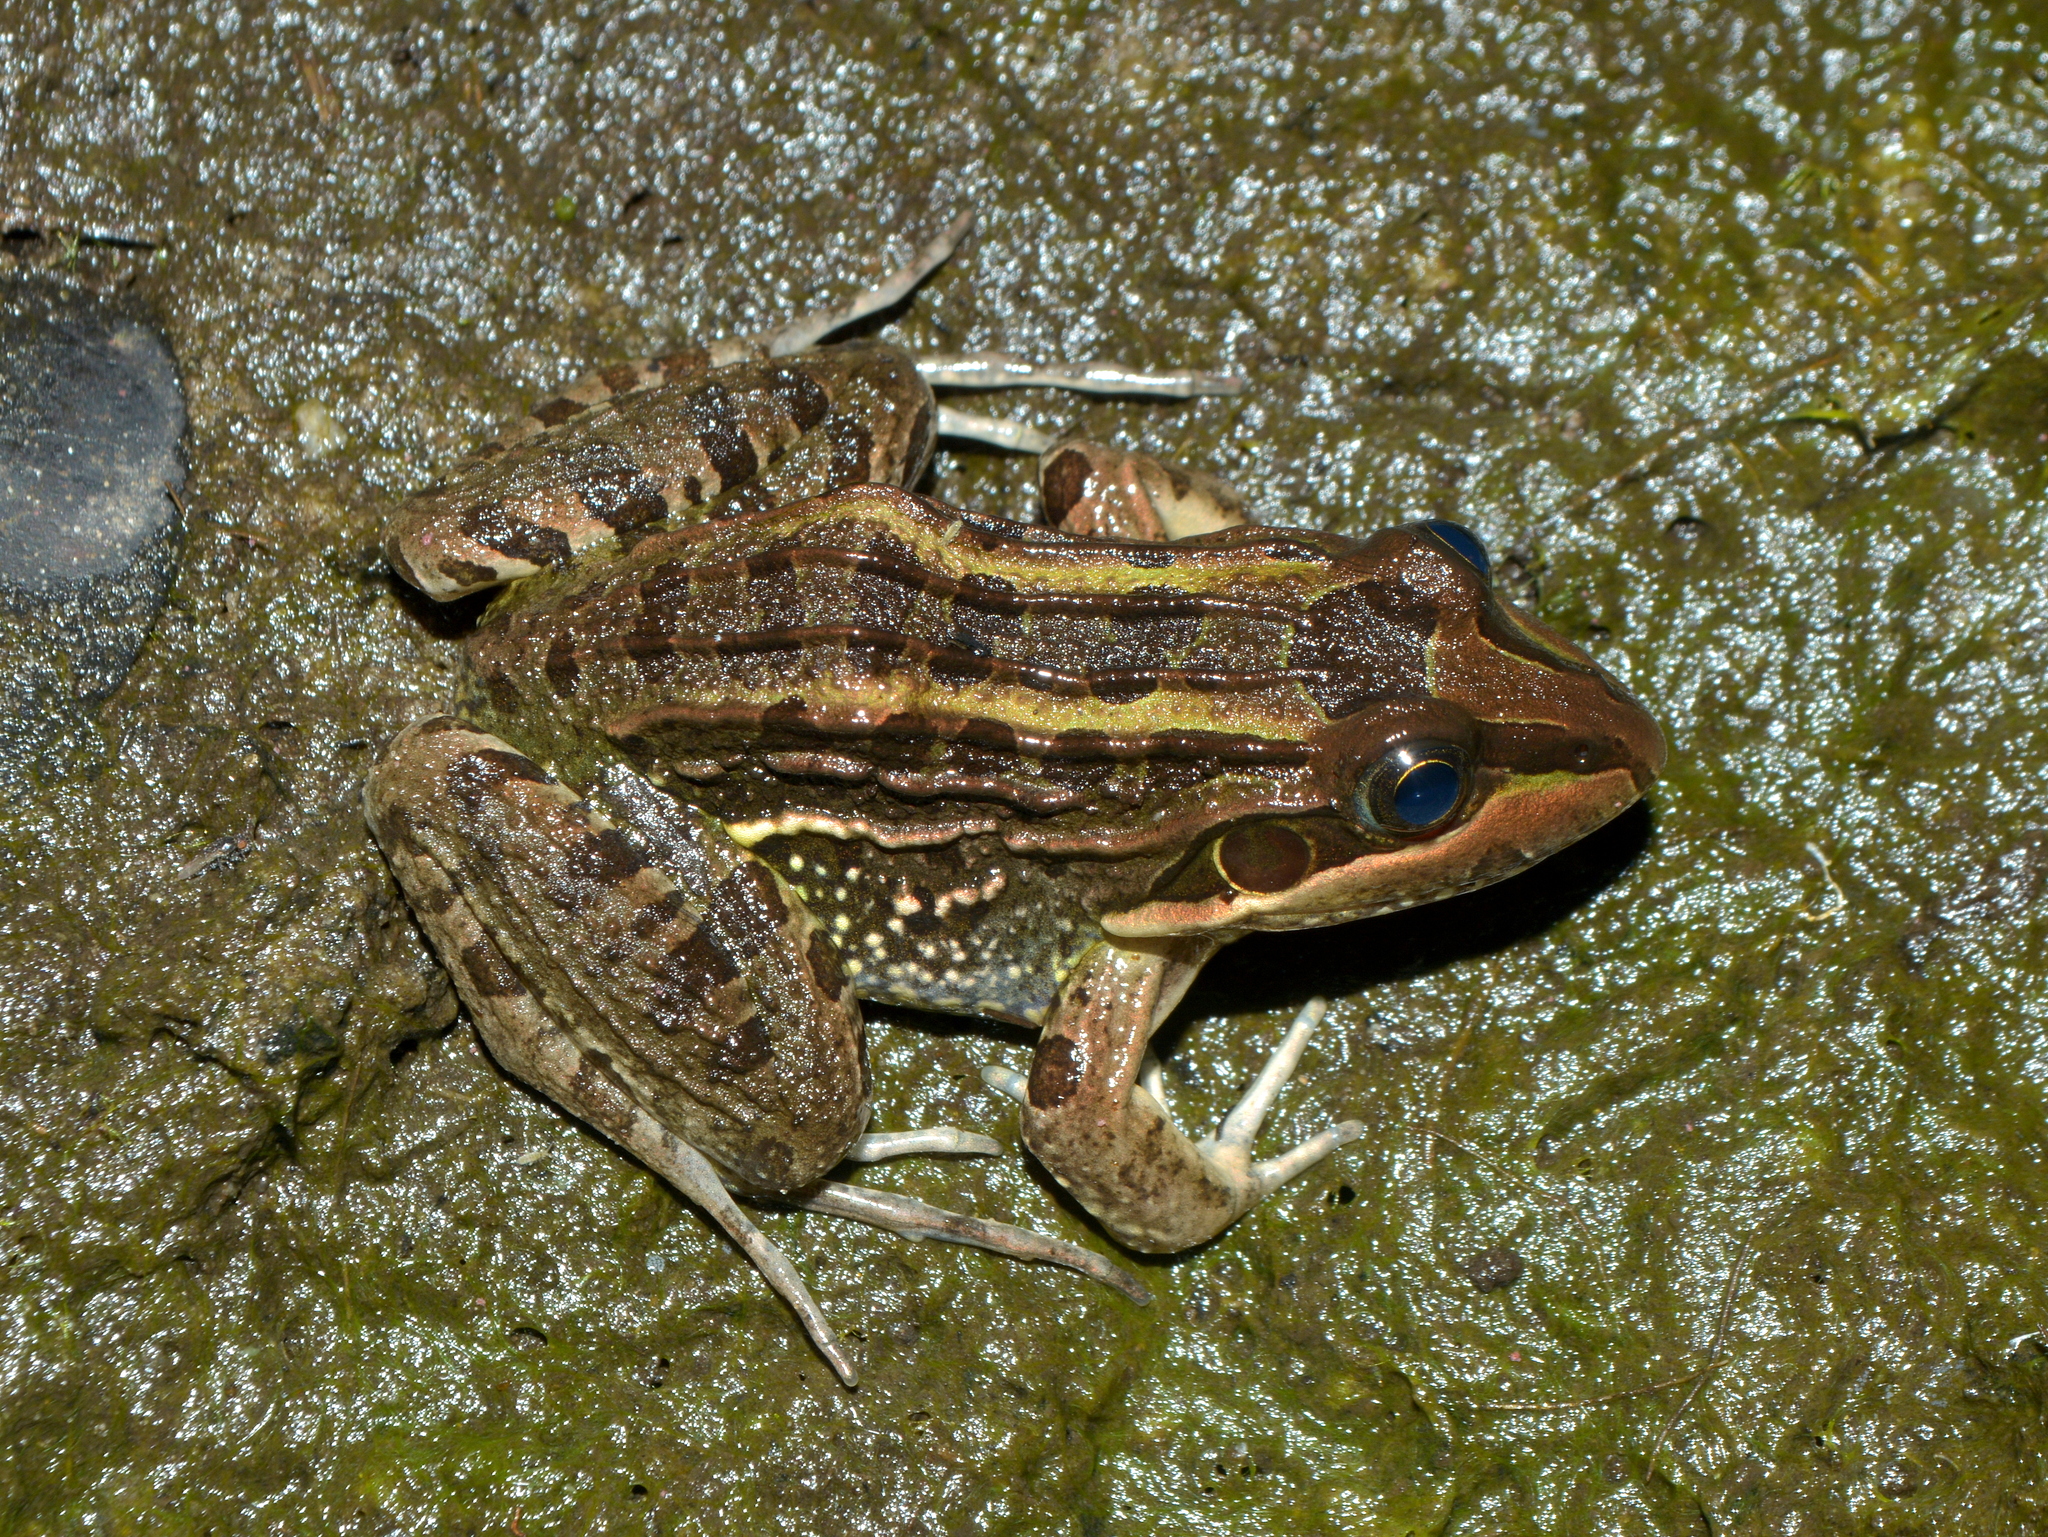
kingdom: Animalia
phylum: Chordata
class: Amphibia
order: Anura
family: Leptodactylidae
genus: Leptodactylus
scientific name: Leptodactylus luctator
